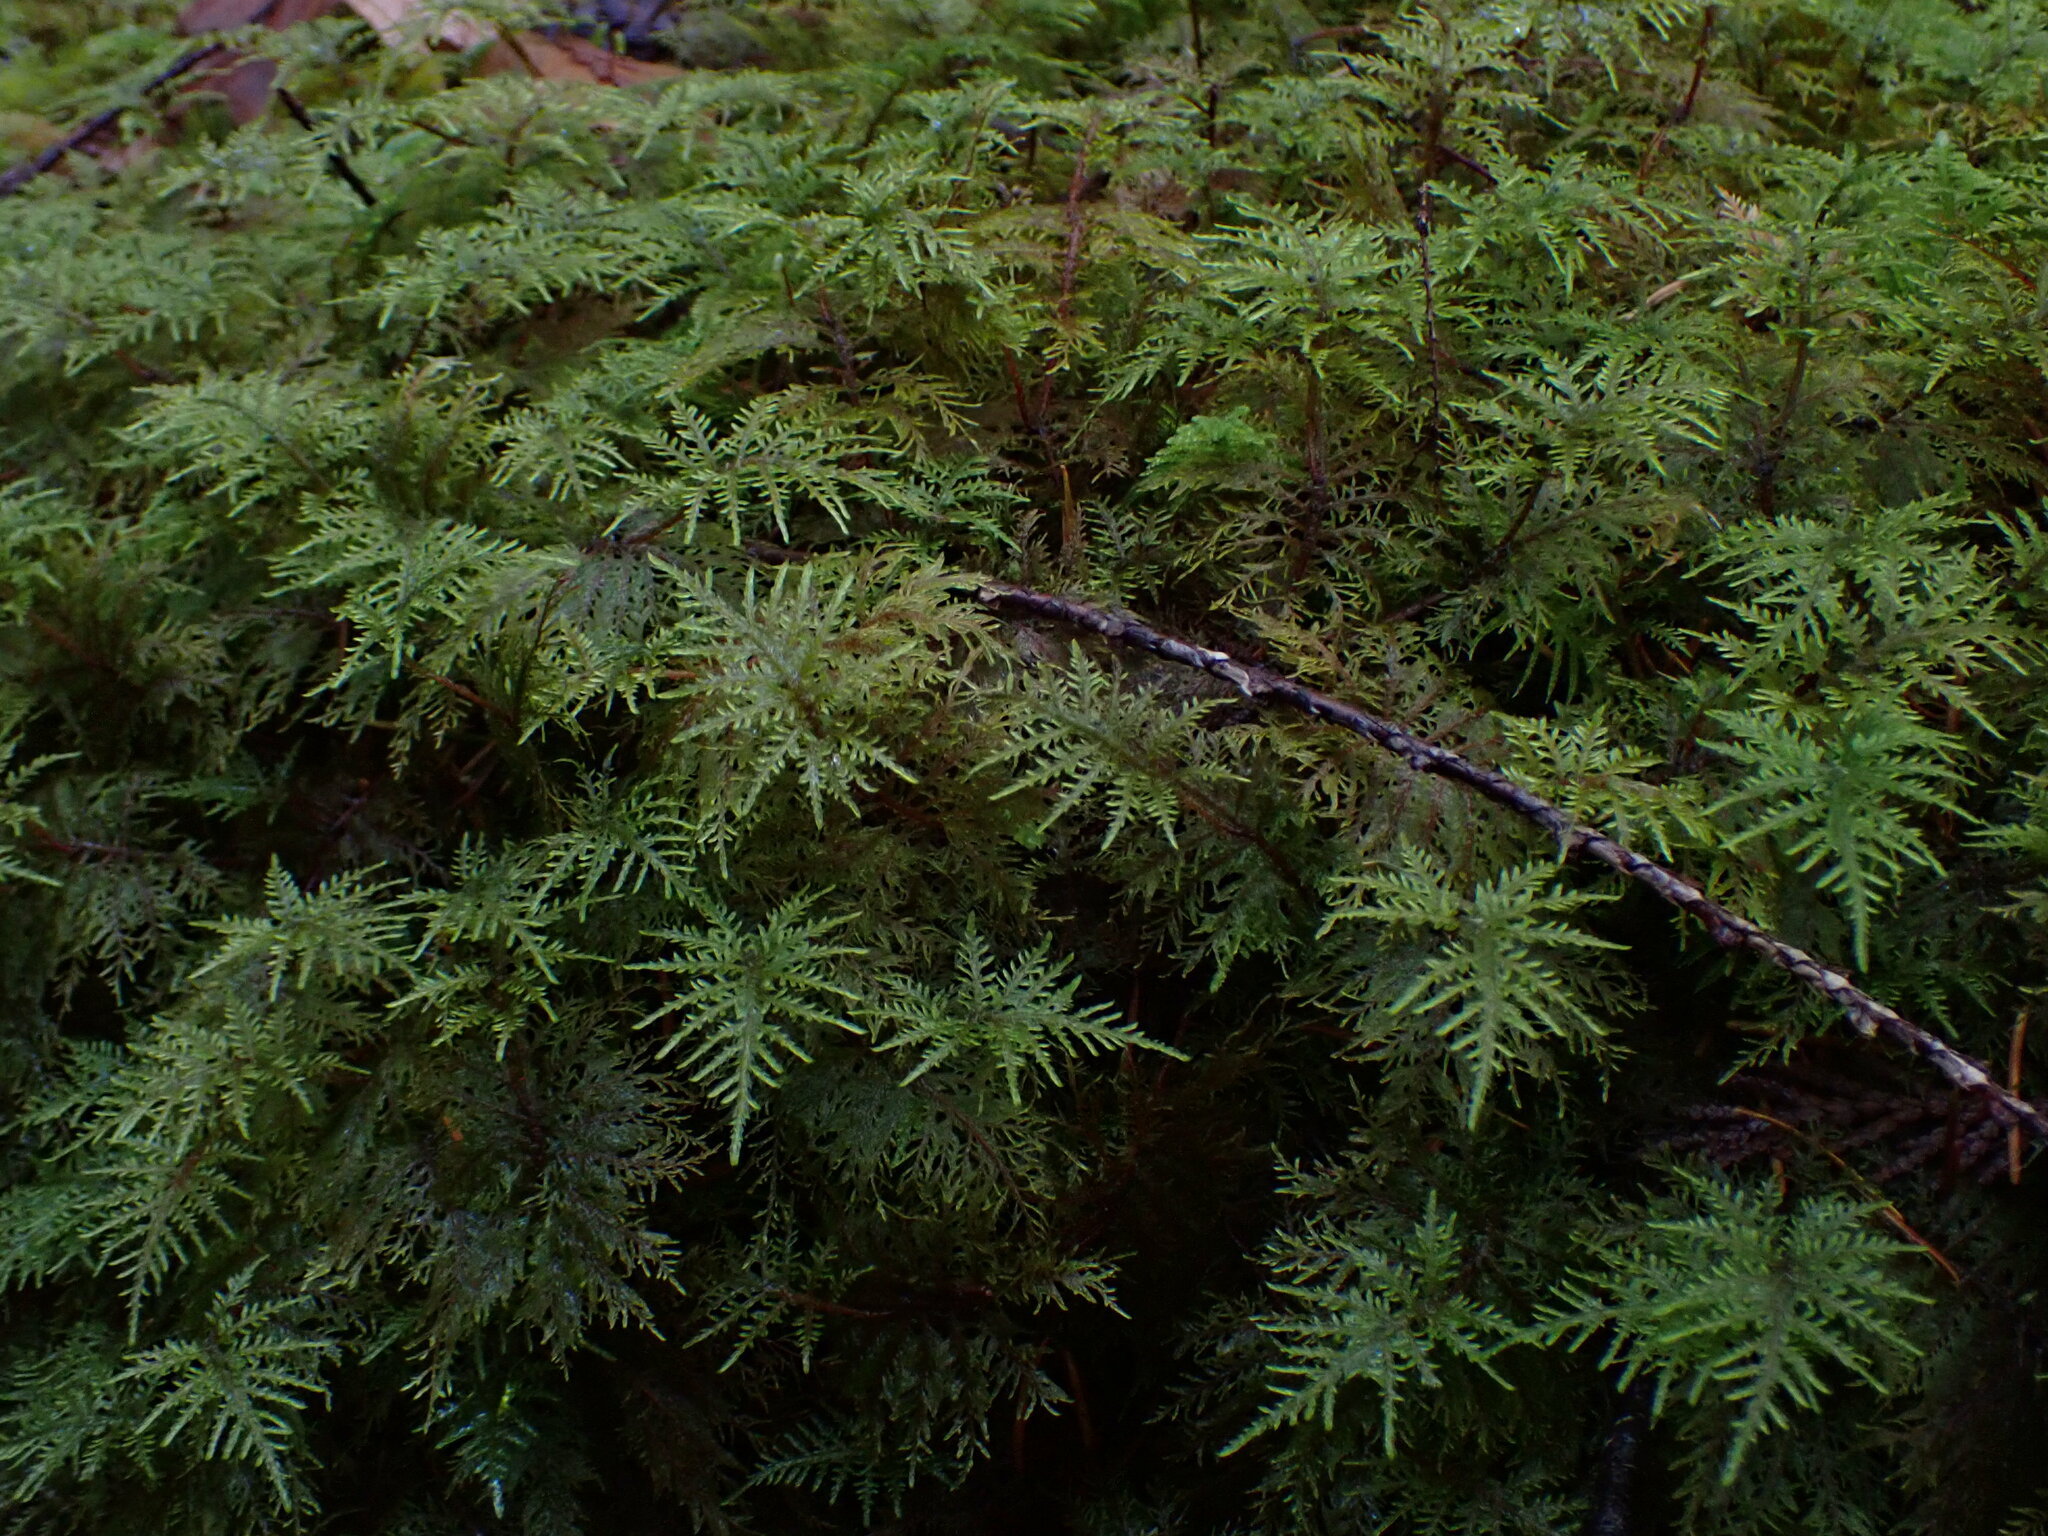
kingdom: Plantae
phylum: Bryophyta
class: Bryopsida
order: Hypnales
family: Hylocomiaceae
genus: Hylocomium
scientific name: Hylocomium splendens
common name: Stairstep moss
